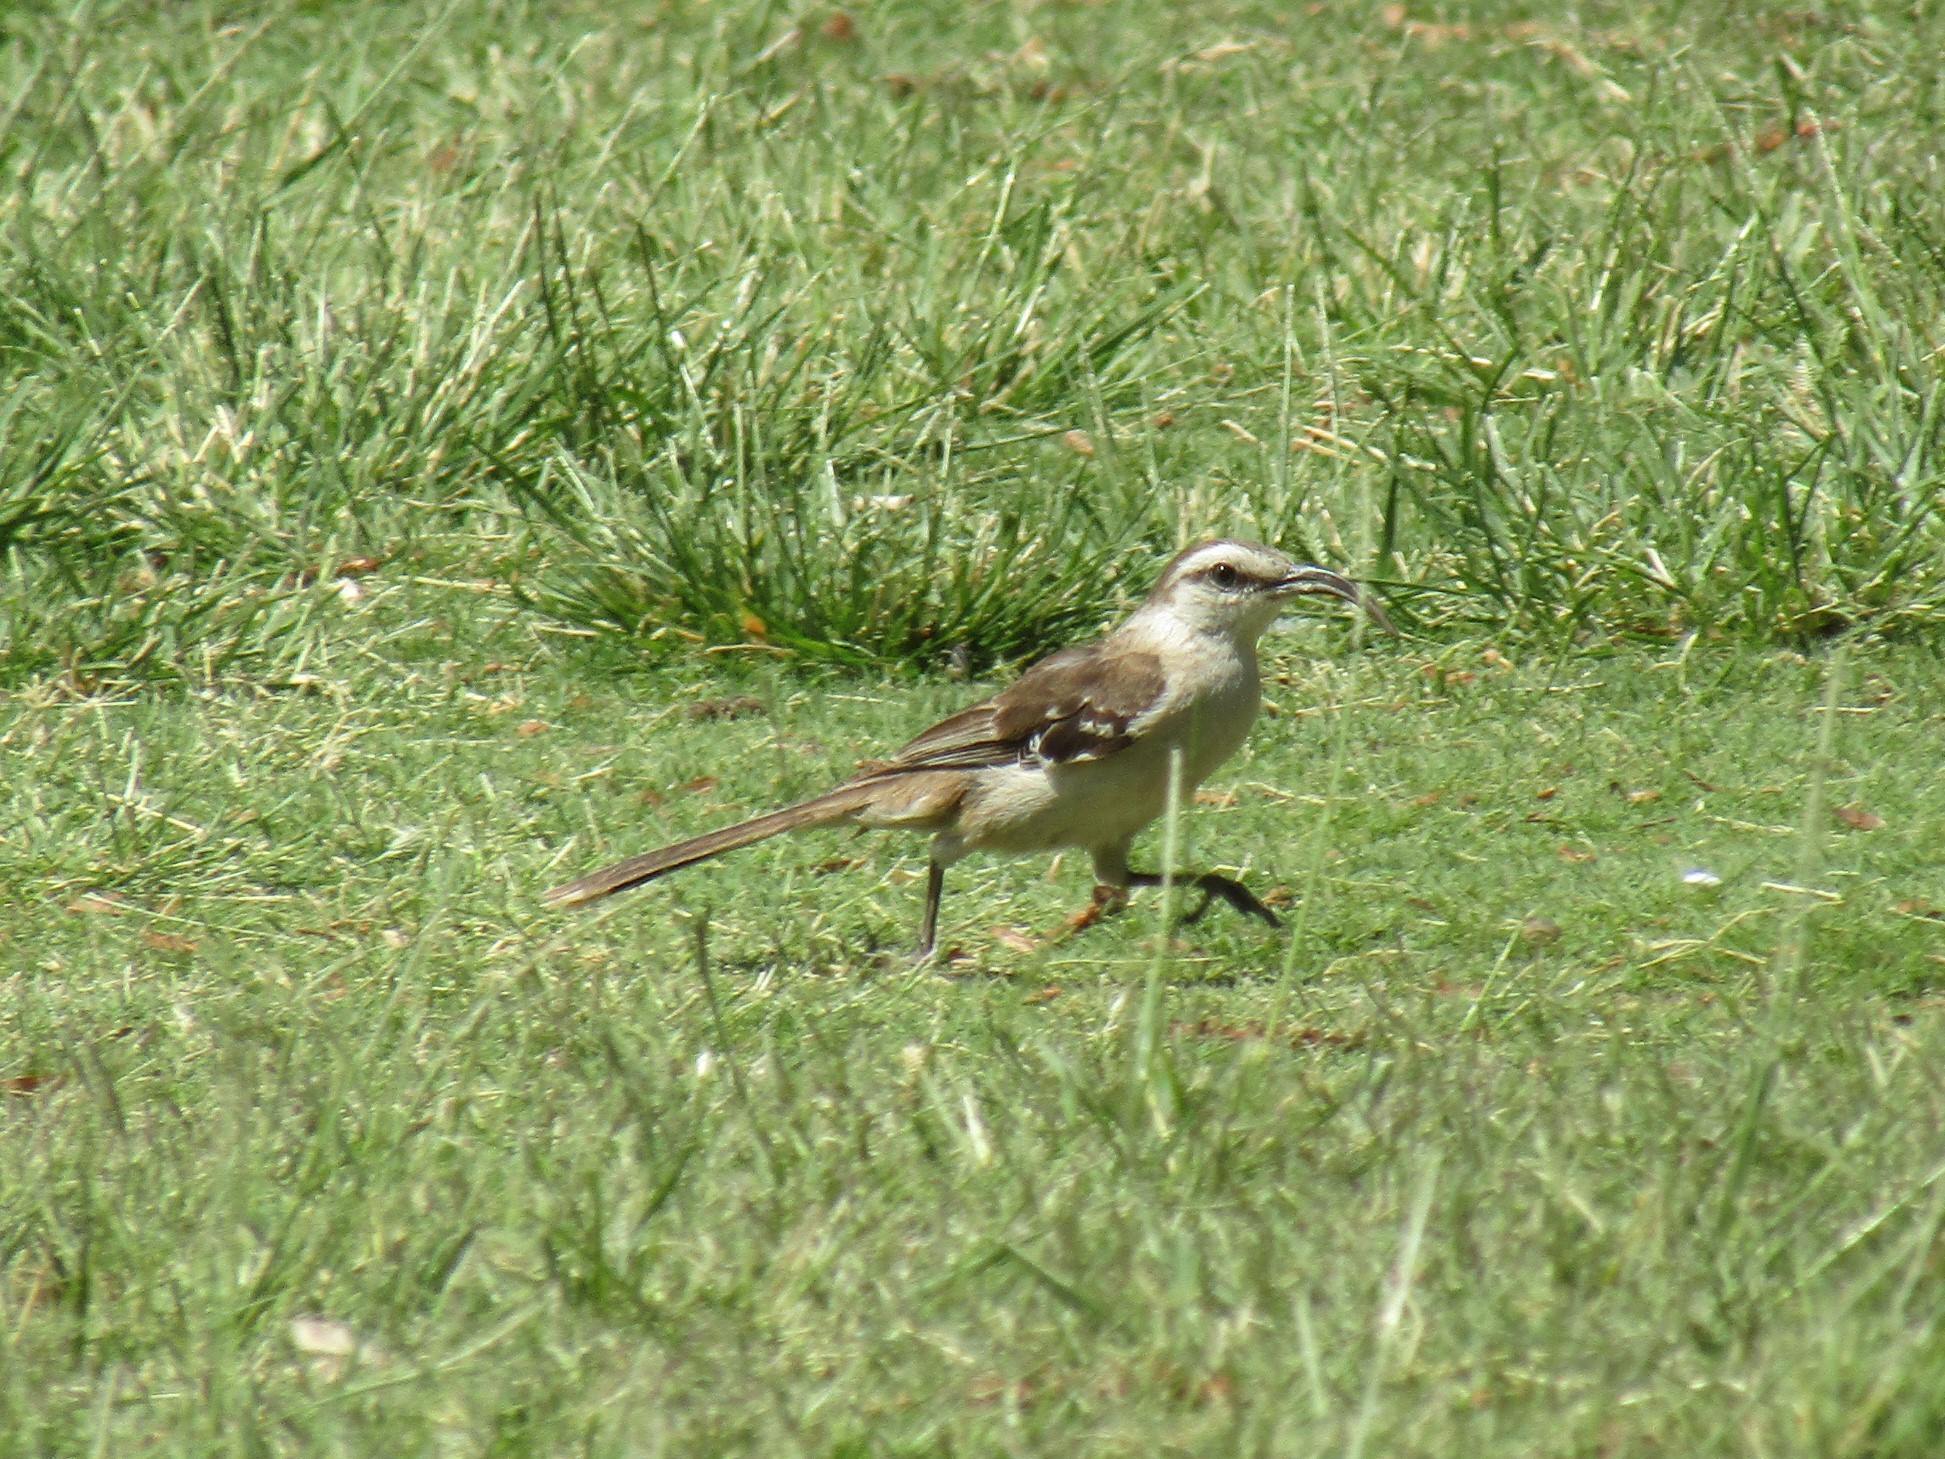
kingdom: Animalia
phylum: Chordata
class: Aves
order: Passeriformes
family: Mimidae
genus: Mimus
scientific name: Mimus saturninus
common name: Chalk-browed mockingbird
